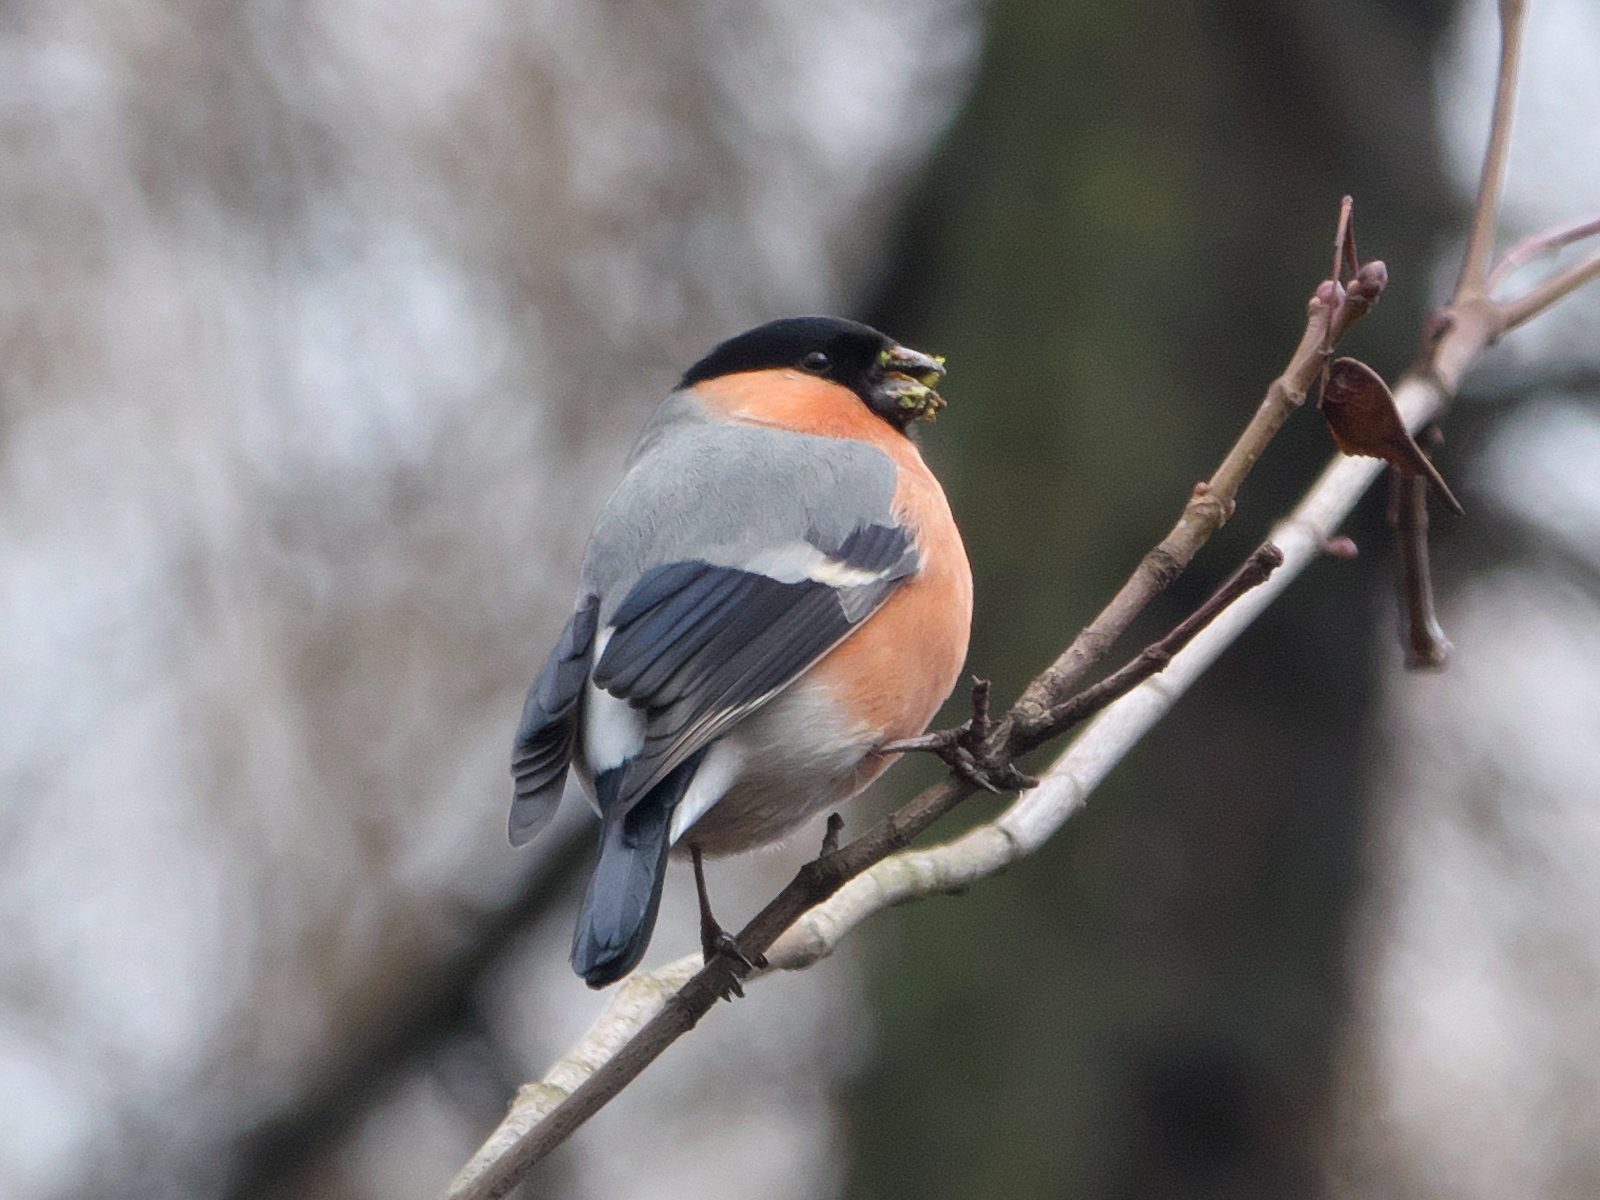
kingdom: Animalia
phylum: Chordata
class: Aves
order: Passeriformes
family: Fringillidae
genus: Pyrrhula
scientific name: Pyrrhula pyrrhula
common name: Eurasian bullfinch
